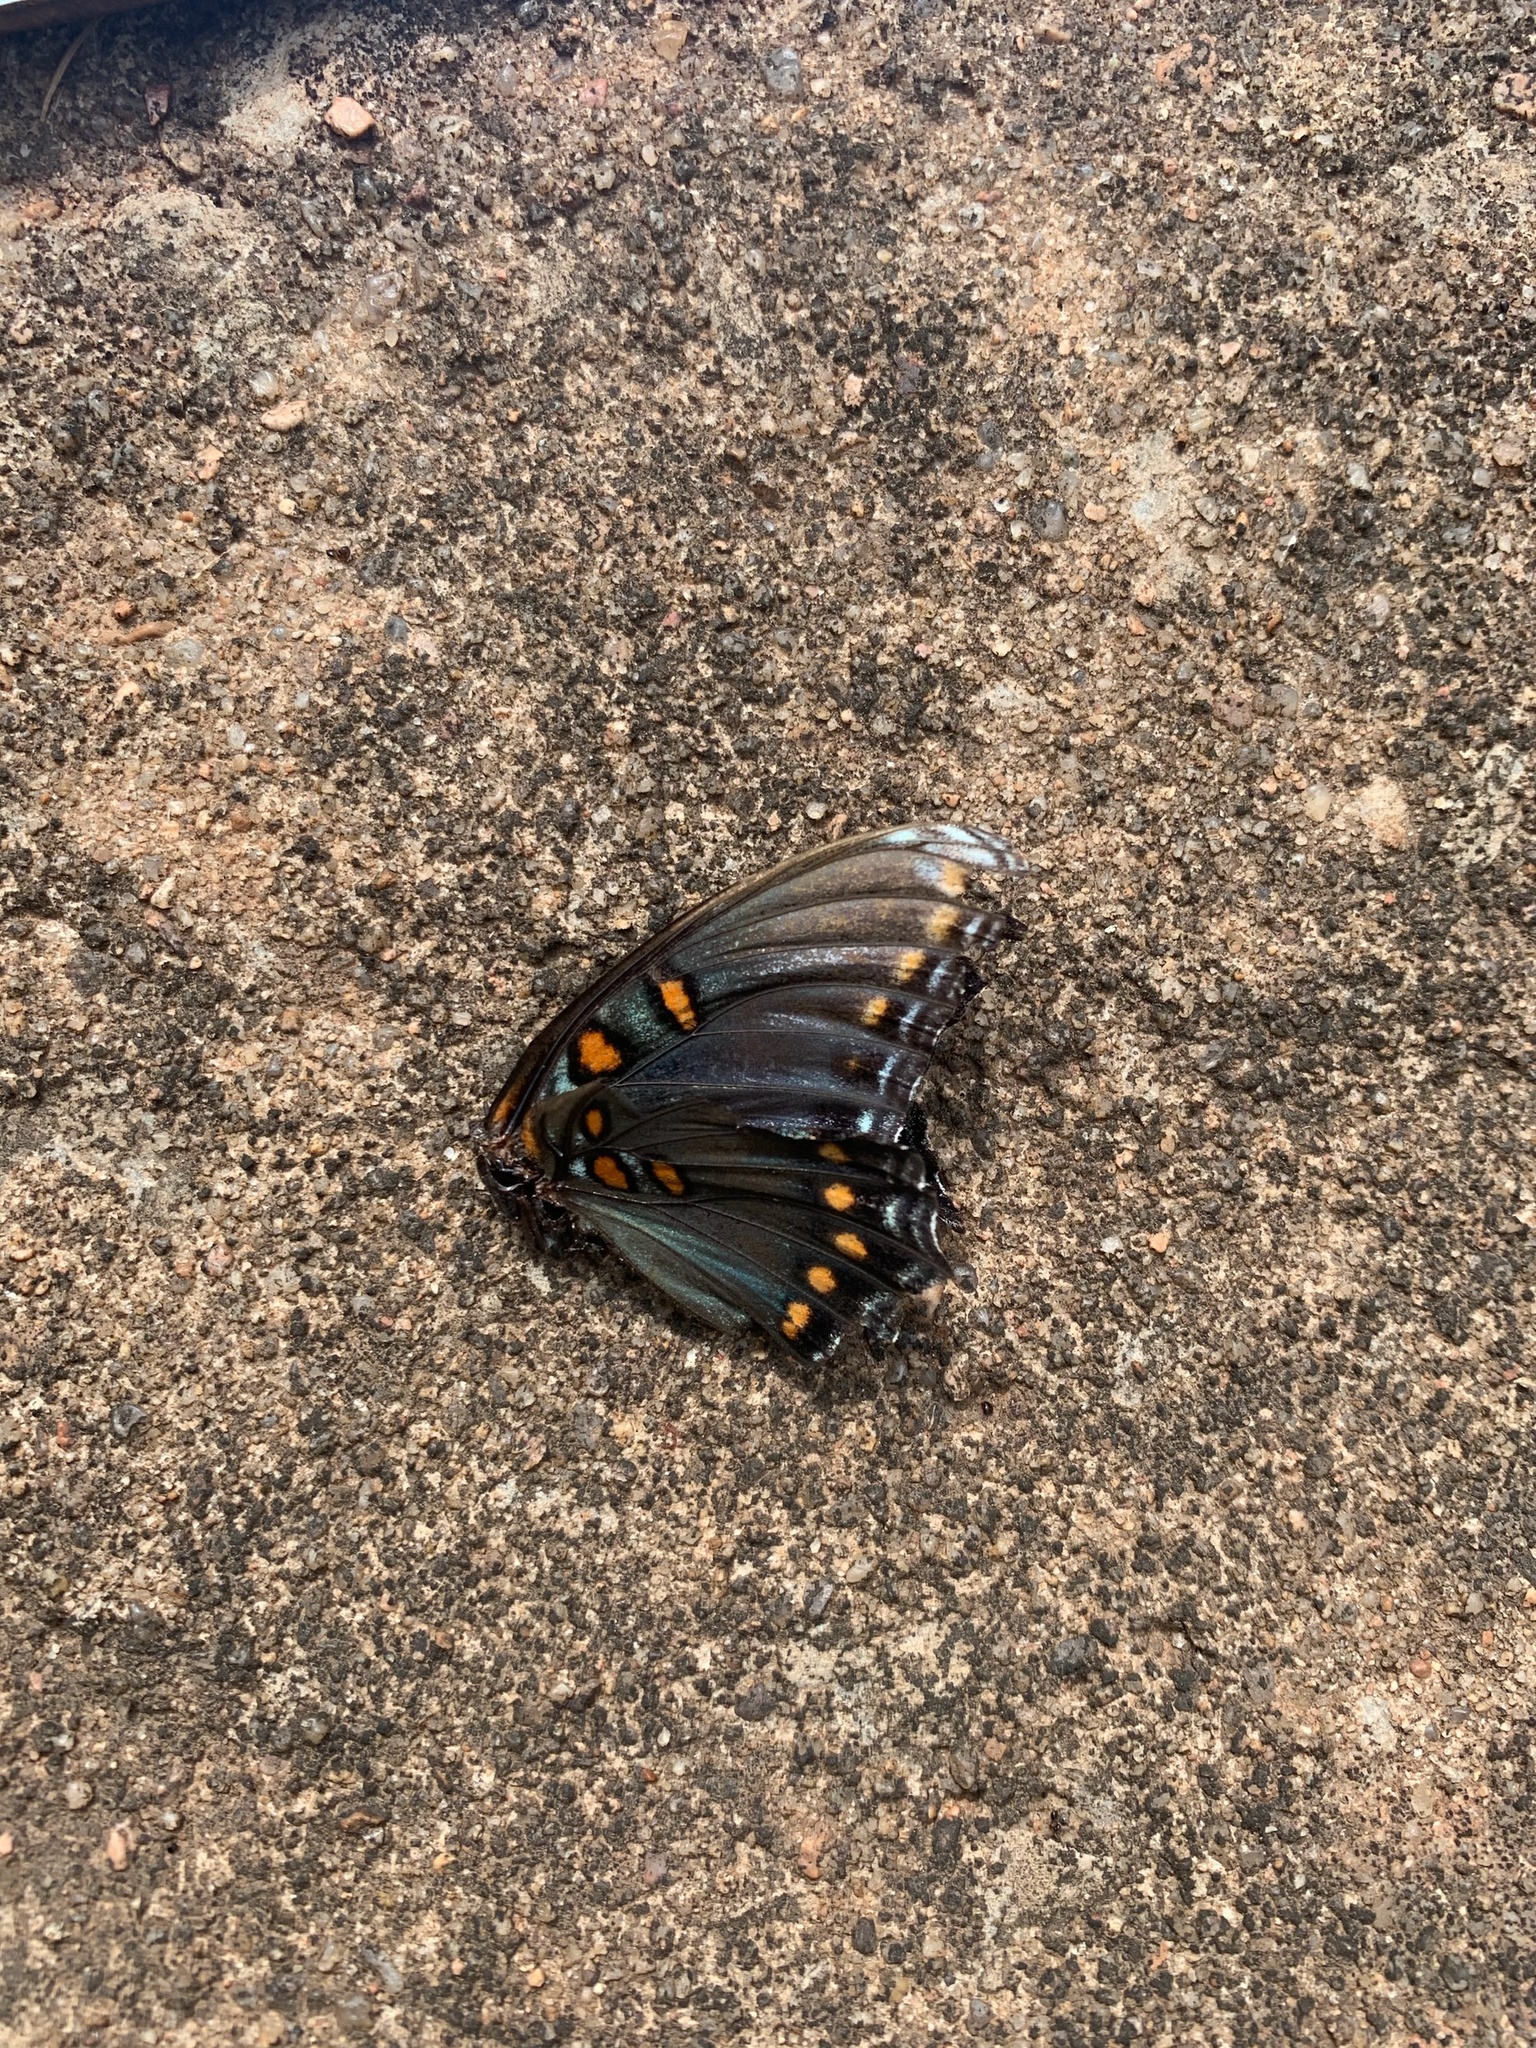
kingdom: Animalia
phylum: Arthropoda
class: Insecta
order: Lepidoptera
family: Nymphalidae
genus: Limenitis
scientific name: Limenitis astyanax
